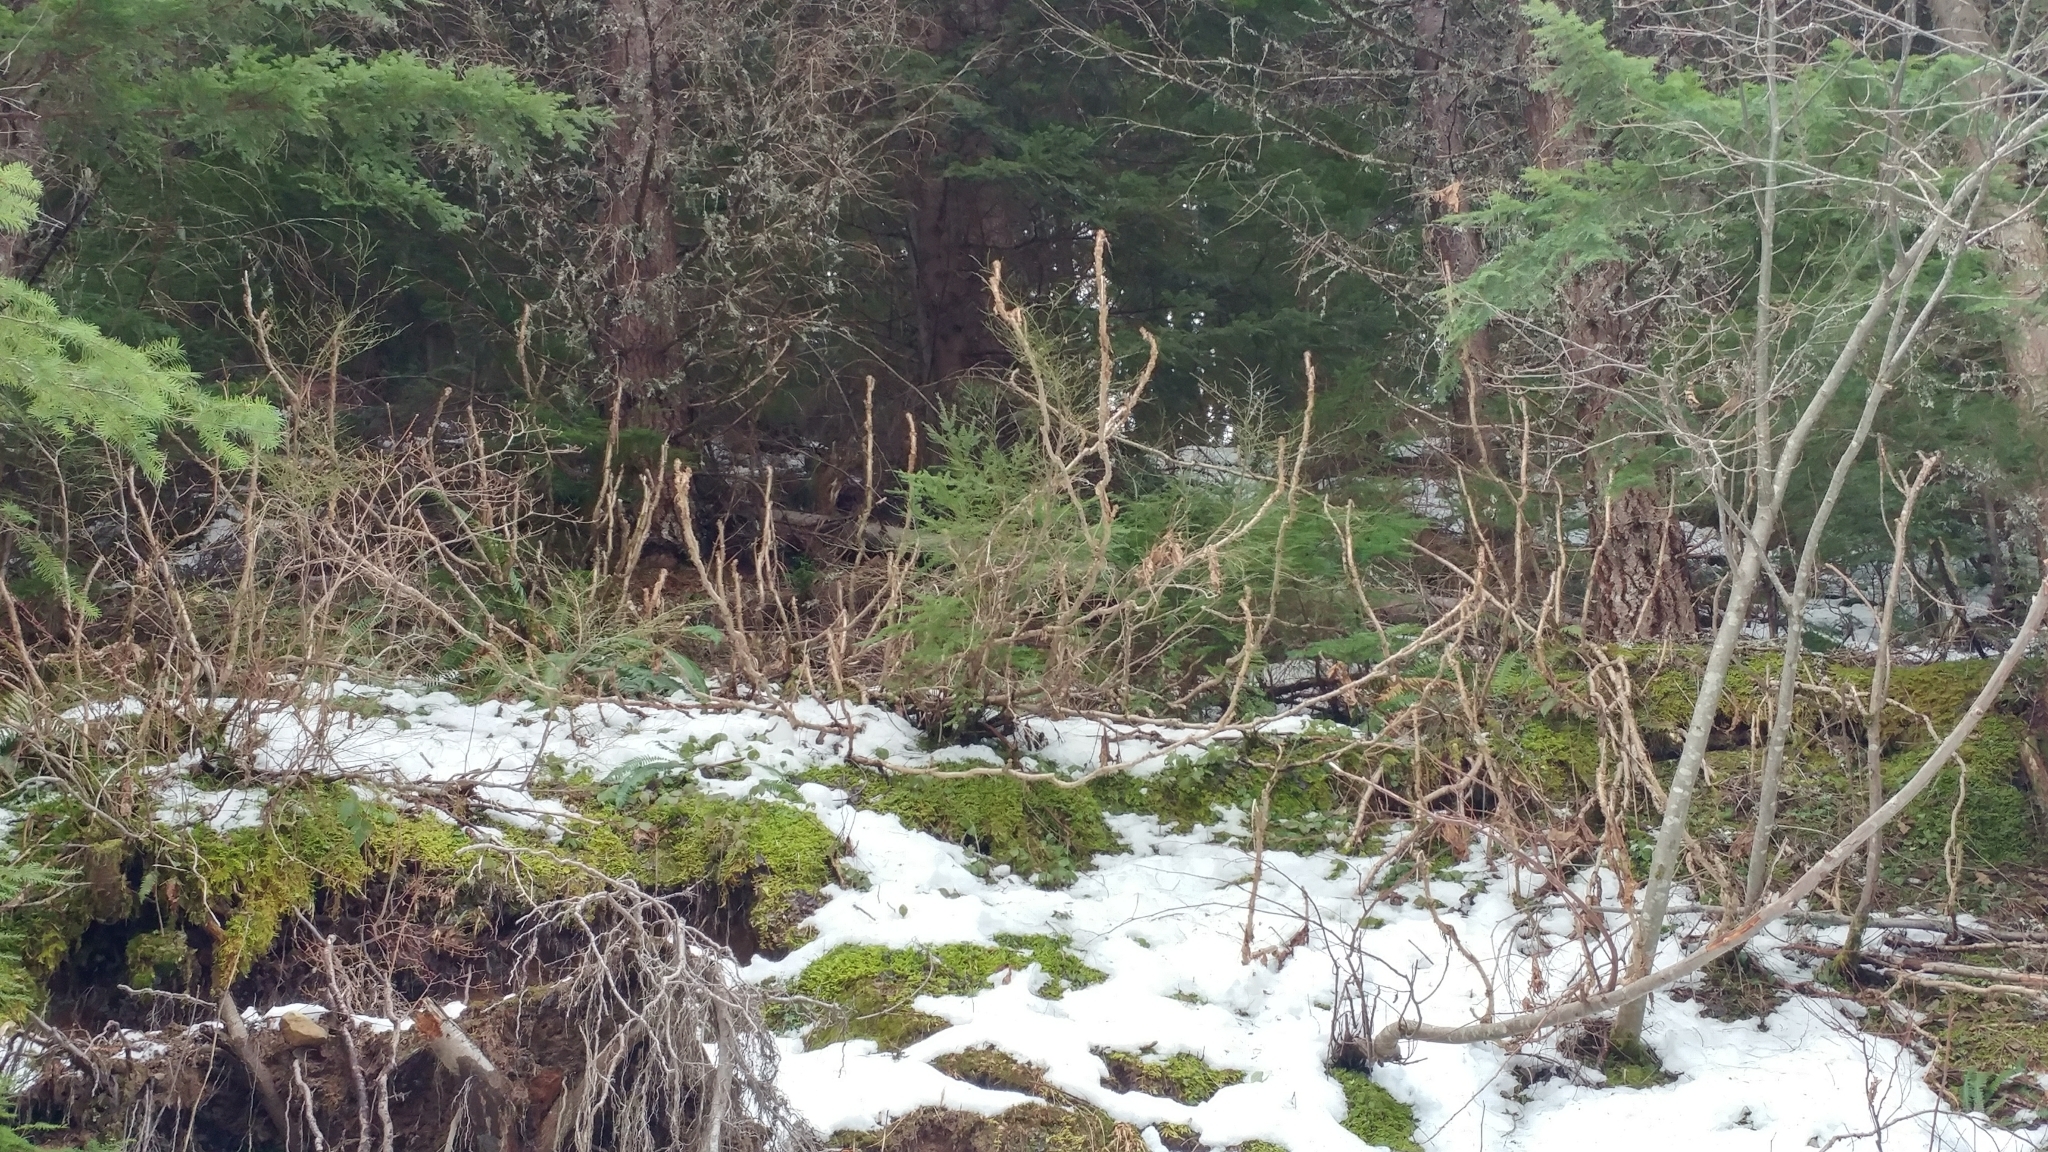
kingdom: Plantae
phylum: Tracheophyta
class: Magnoliopsida
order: Apiales
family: Araliaceae
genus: Oplopanax
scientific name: Oplopanax horridus
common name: Devil's walking-stick
